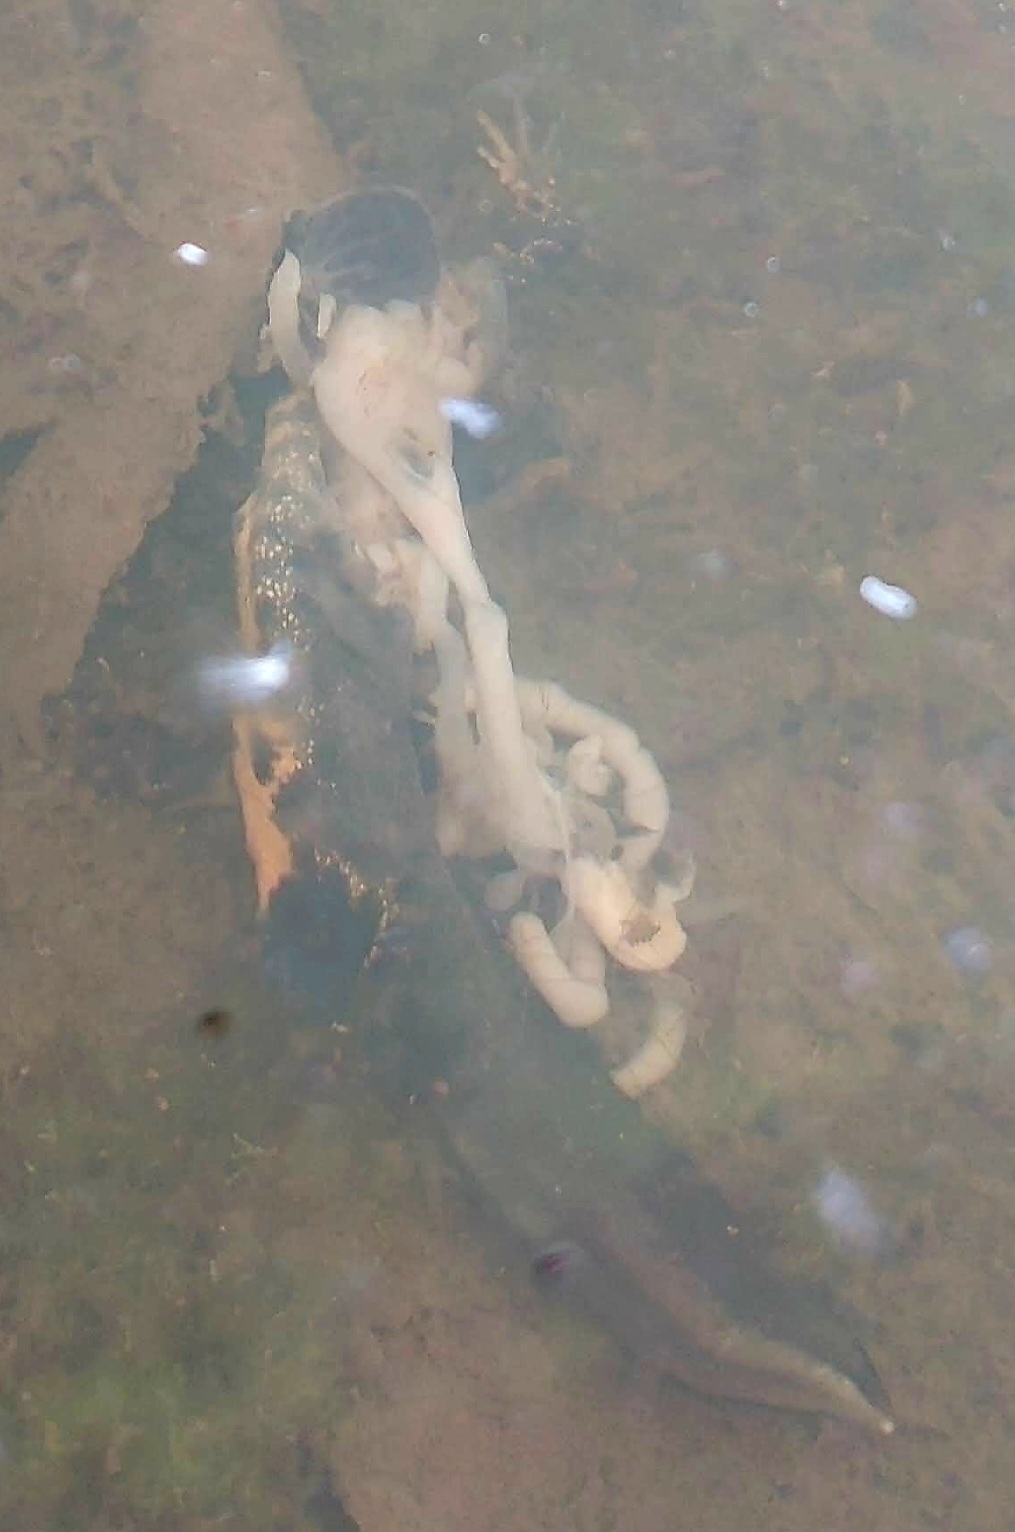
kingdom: Animalia
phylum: Chordata
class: Amphibia
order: Caudata
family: Salamandridae
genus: Triturus
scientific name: Triturus cristatus
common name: Crested newt
